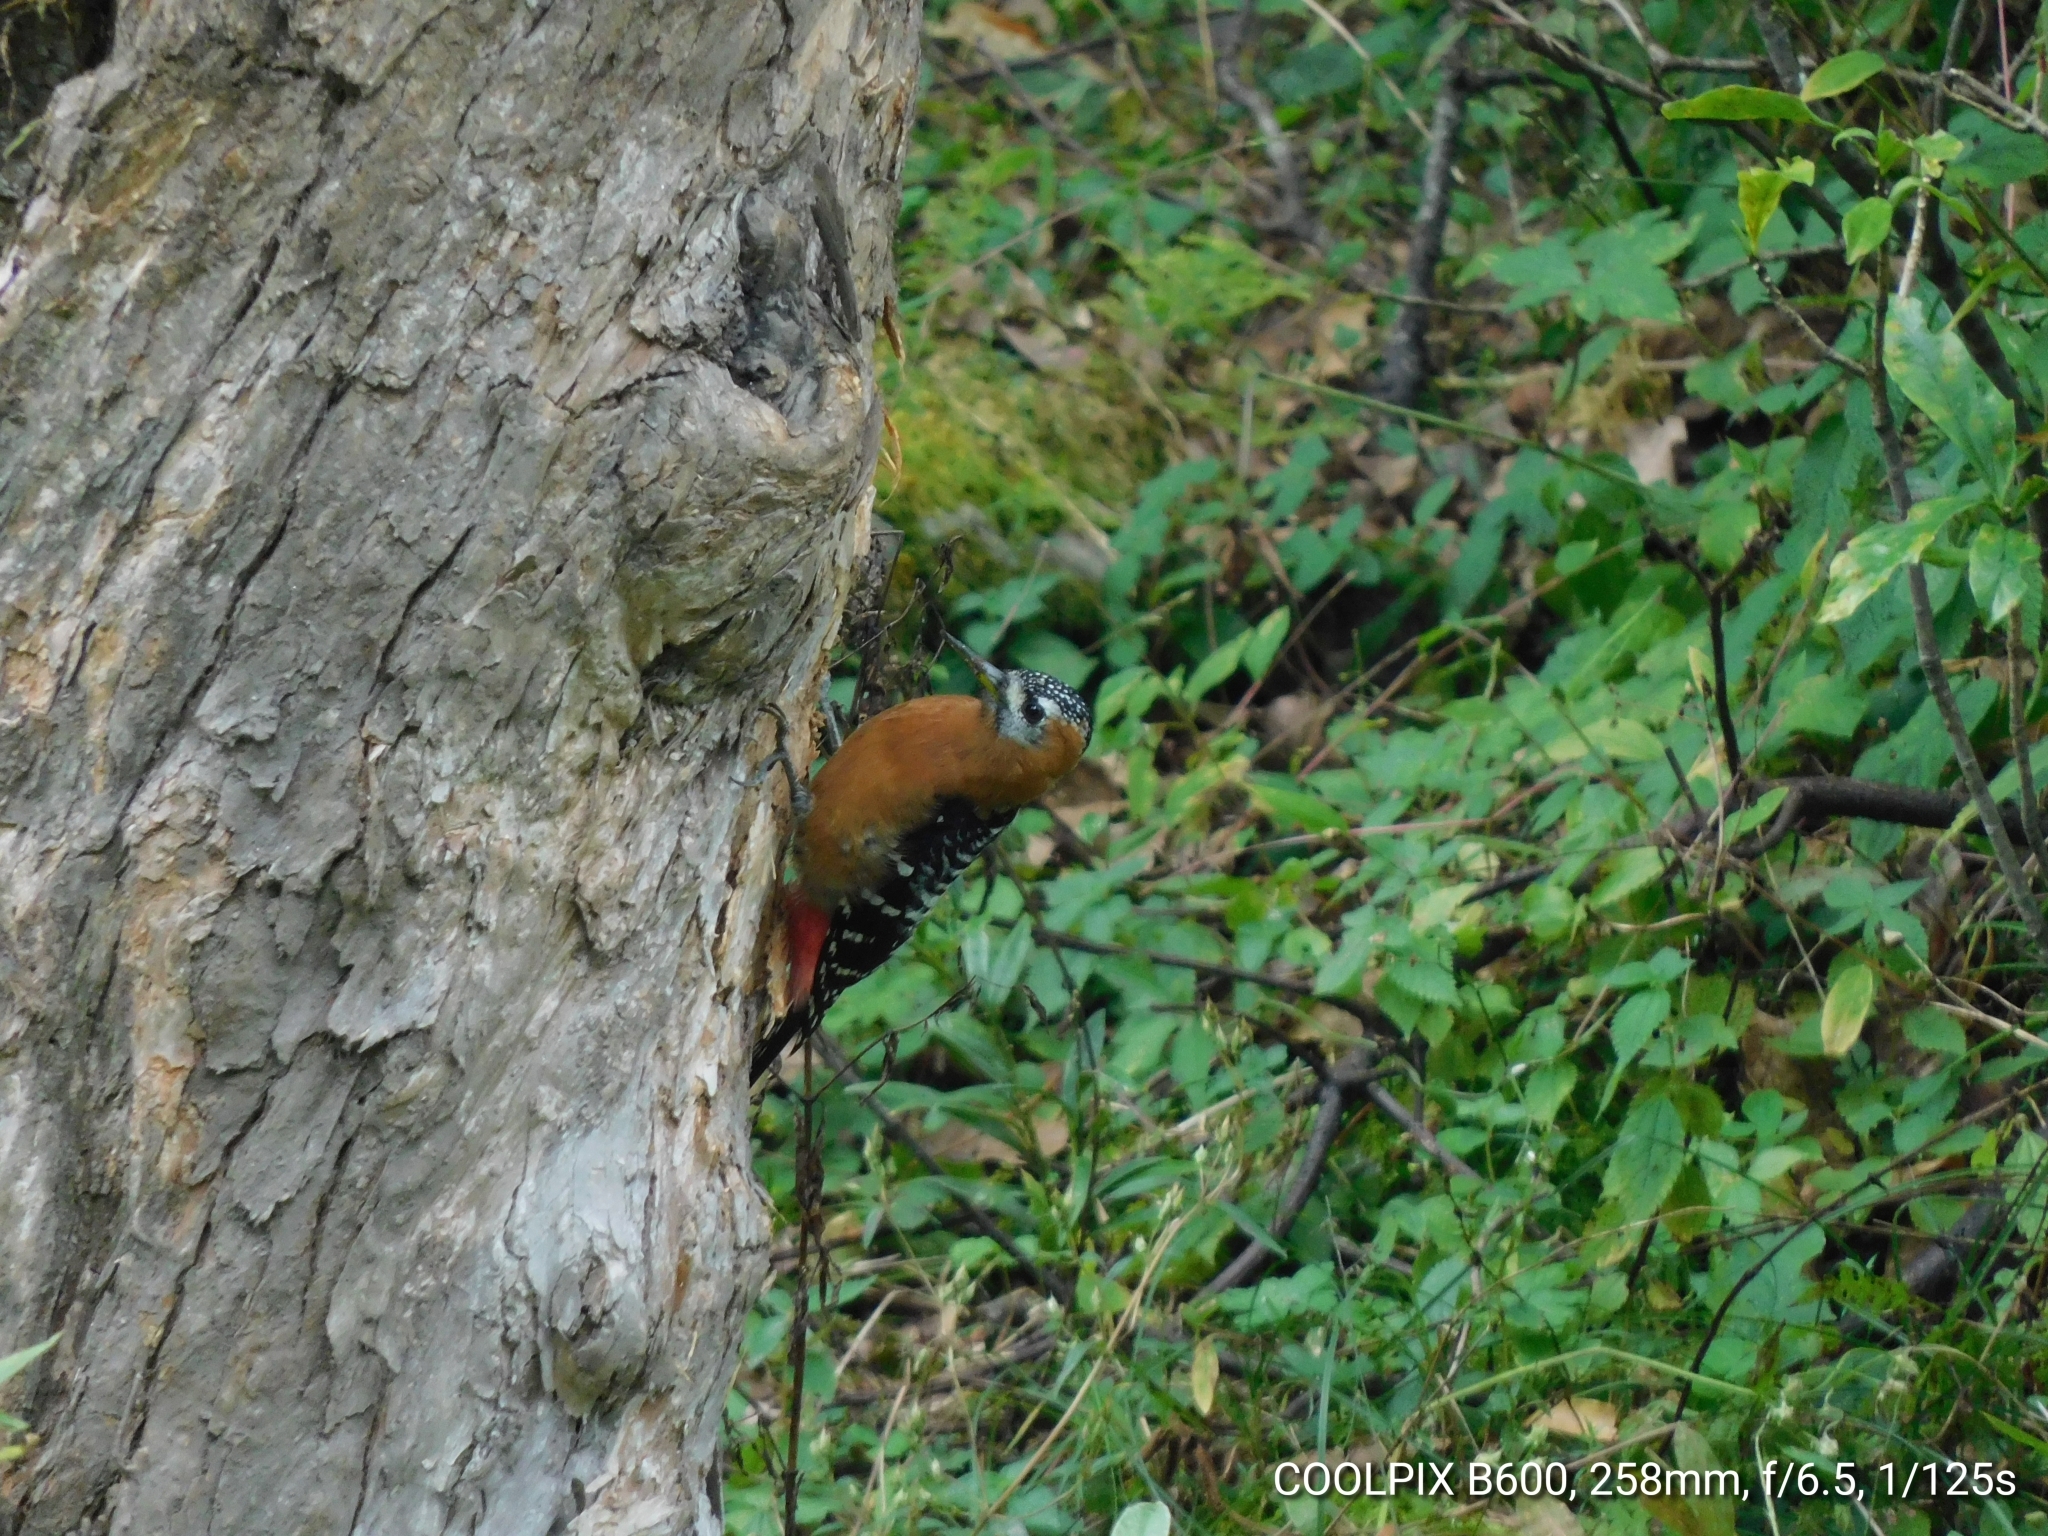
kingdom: Animalia
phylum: Chordata
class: Aves
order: Piciformes
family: Picidae
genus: Dendrocopos
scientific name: Dendrocopos hyperythrus
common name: Rufous-bellied woodpecker
